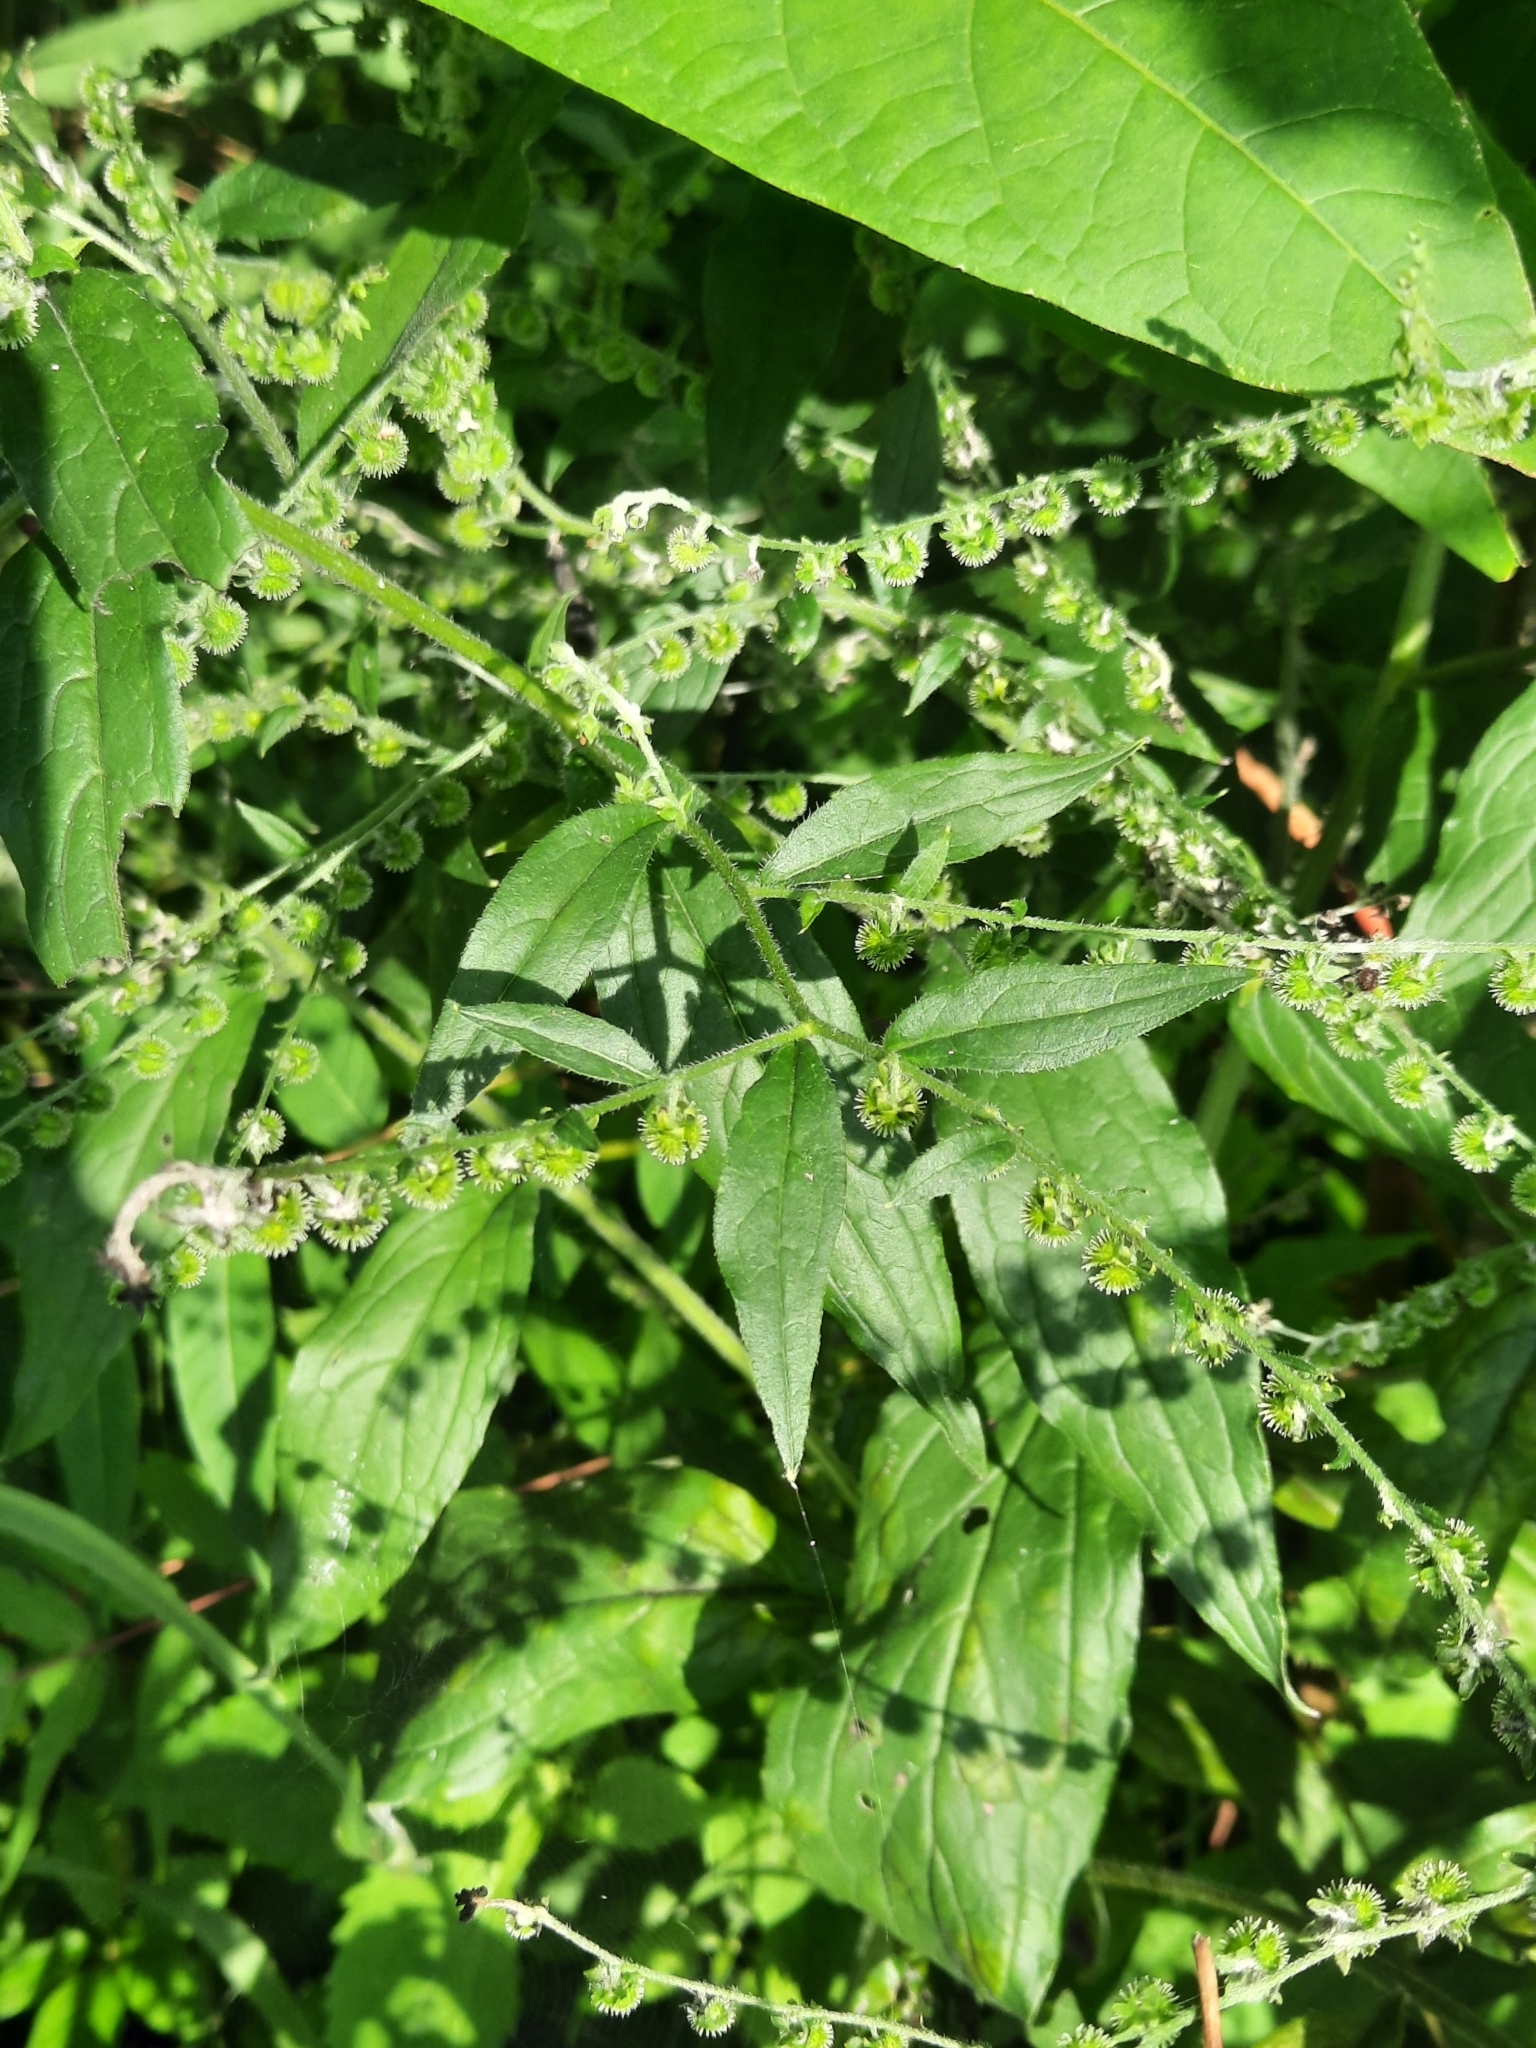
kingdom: Plantae
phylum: Tracheophyta
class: Magnoliopsida
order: Boraginales
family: Boraginaceae
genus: Hackelia
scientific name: Hackelia virginiana
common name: Beggar's-lice
